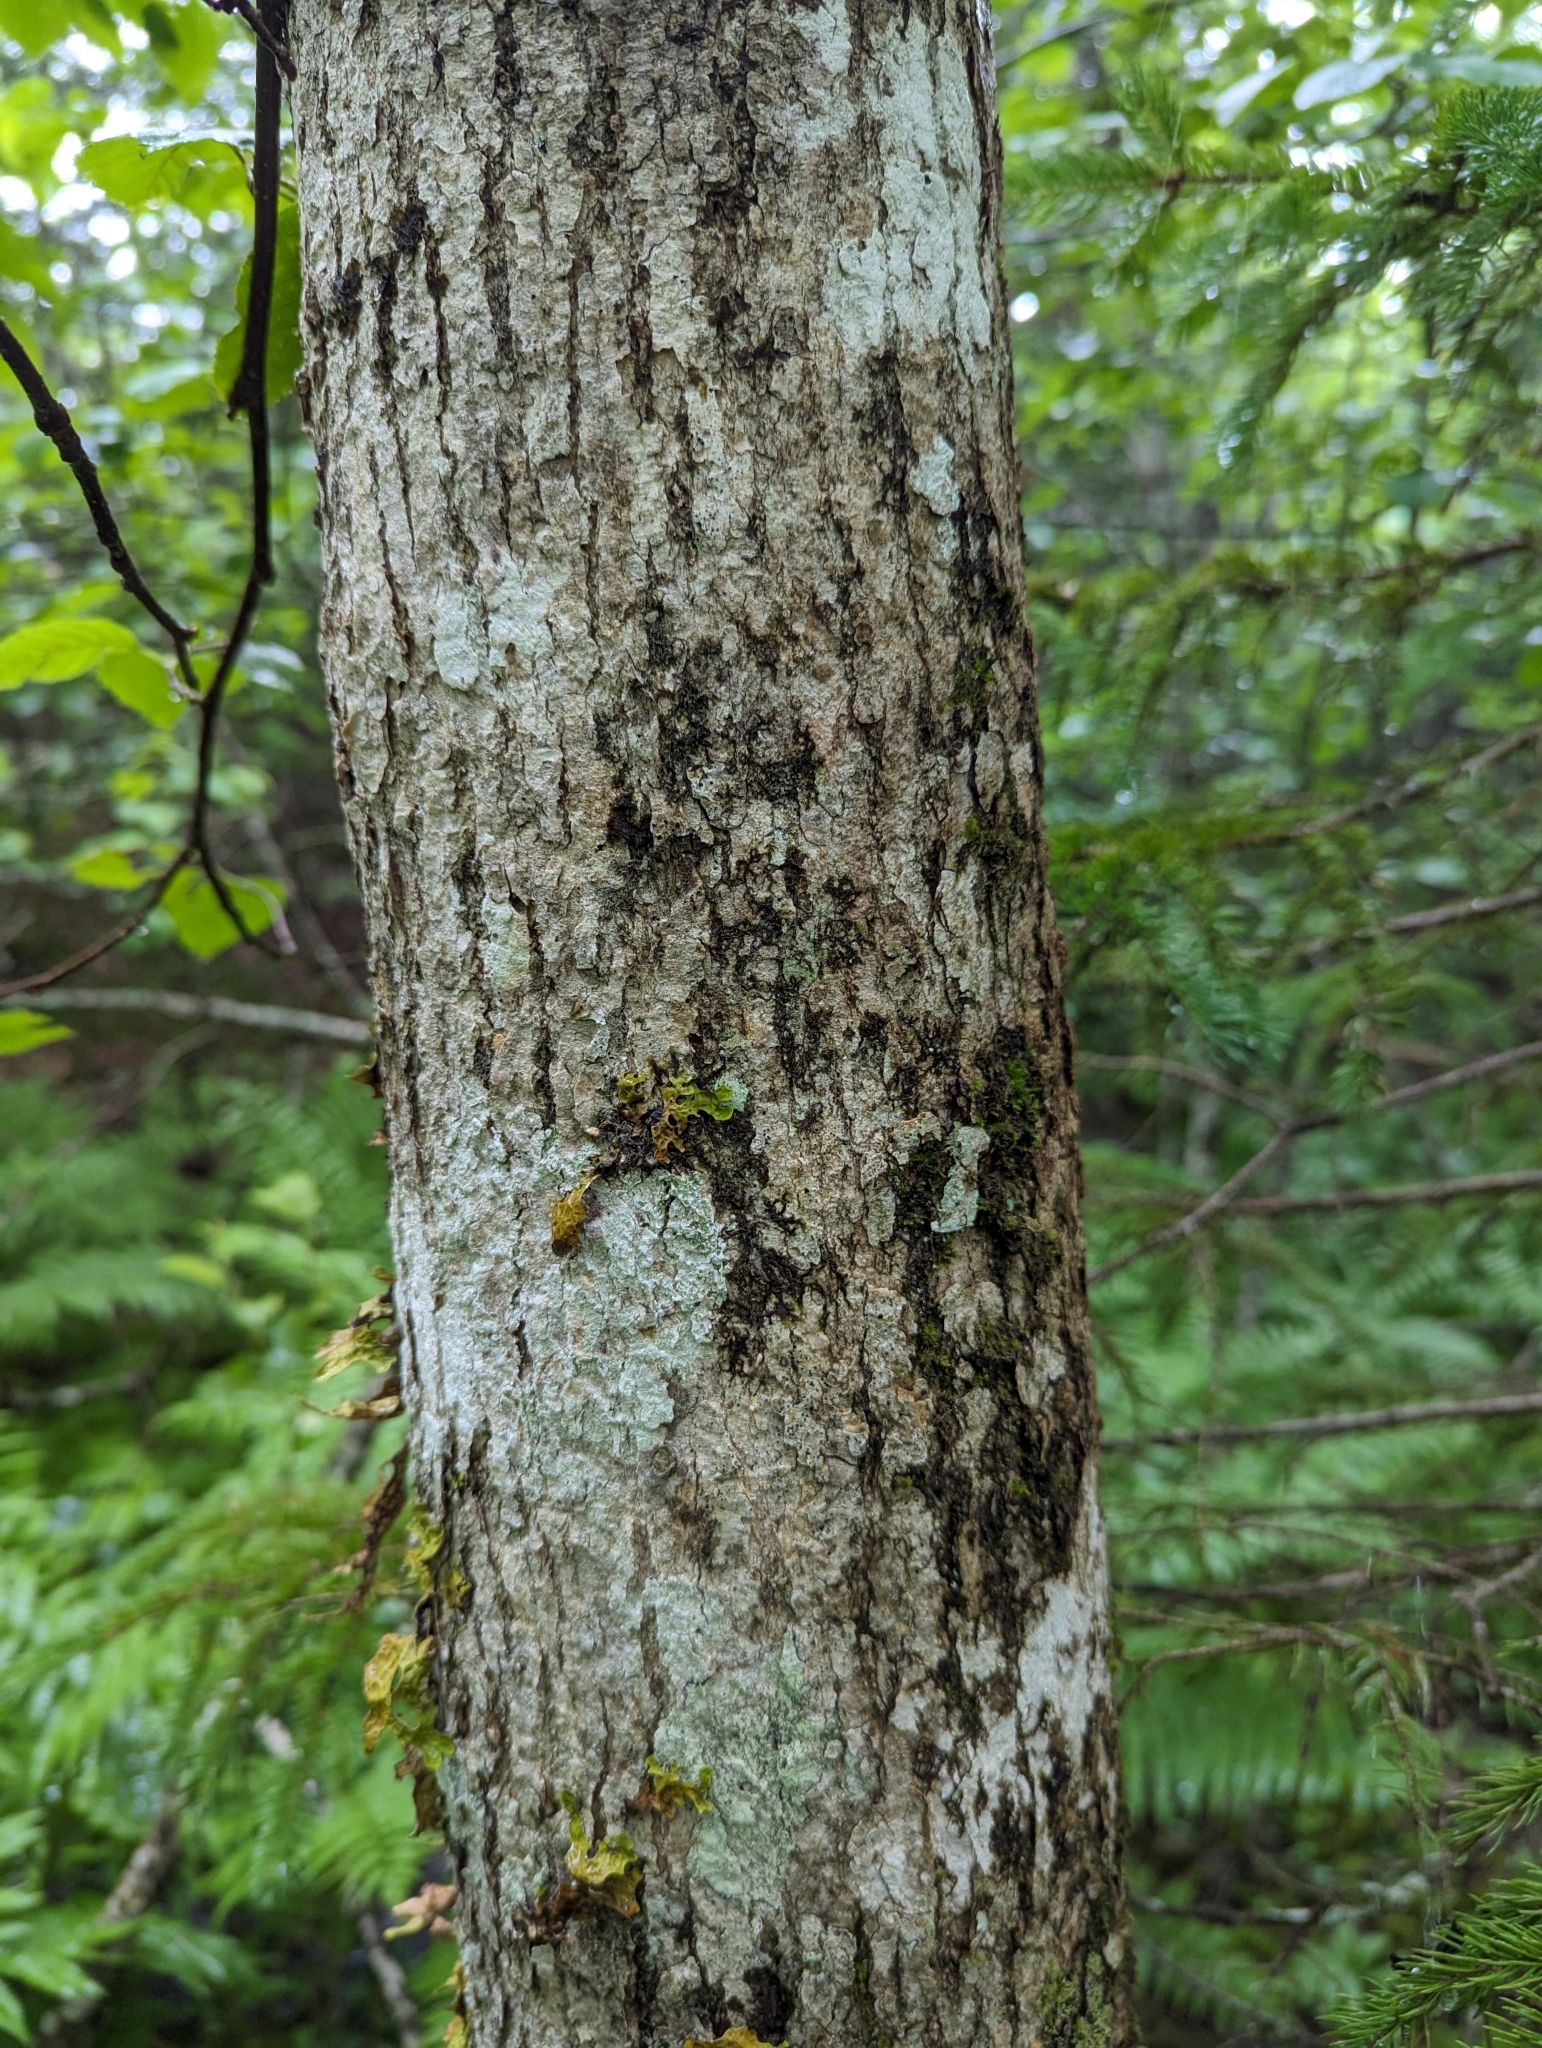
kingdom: Plantae
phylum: Tracheophyta
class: Magnoliopsida
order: Lamiales
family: Oleaceae
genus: Fraxinus
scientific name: Fraxinus nigra
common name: Black ash
